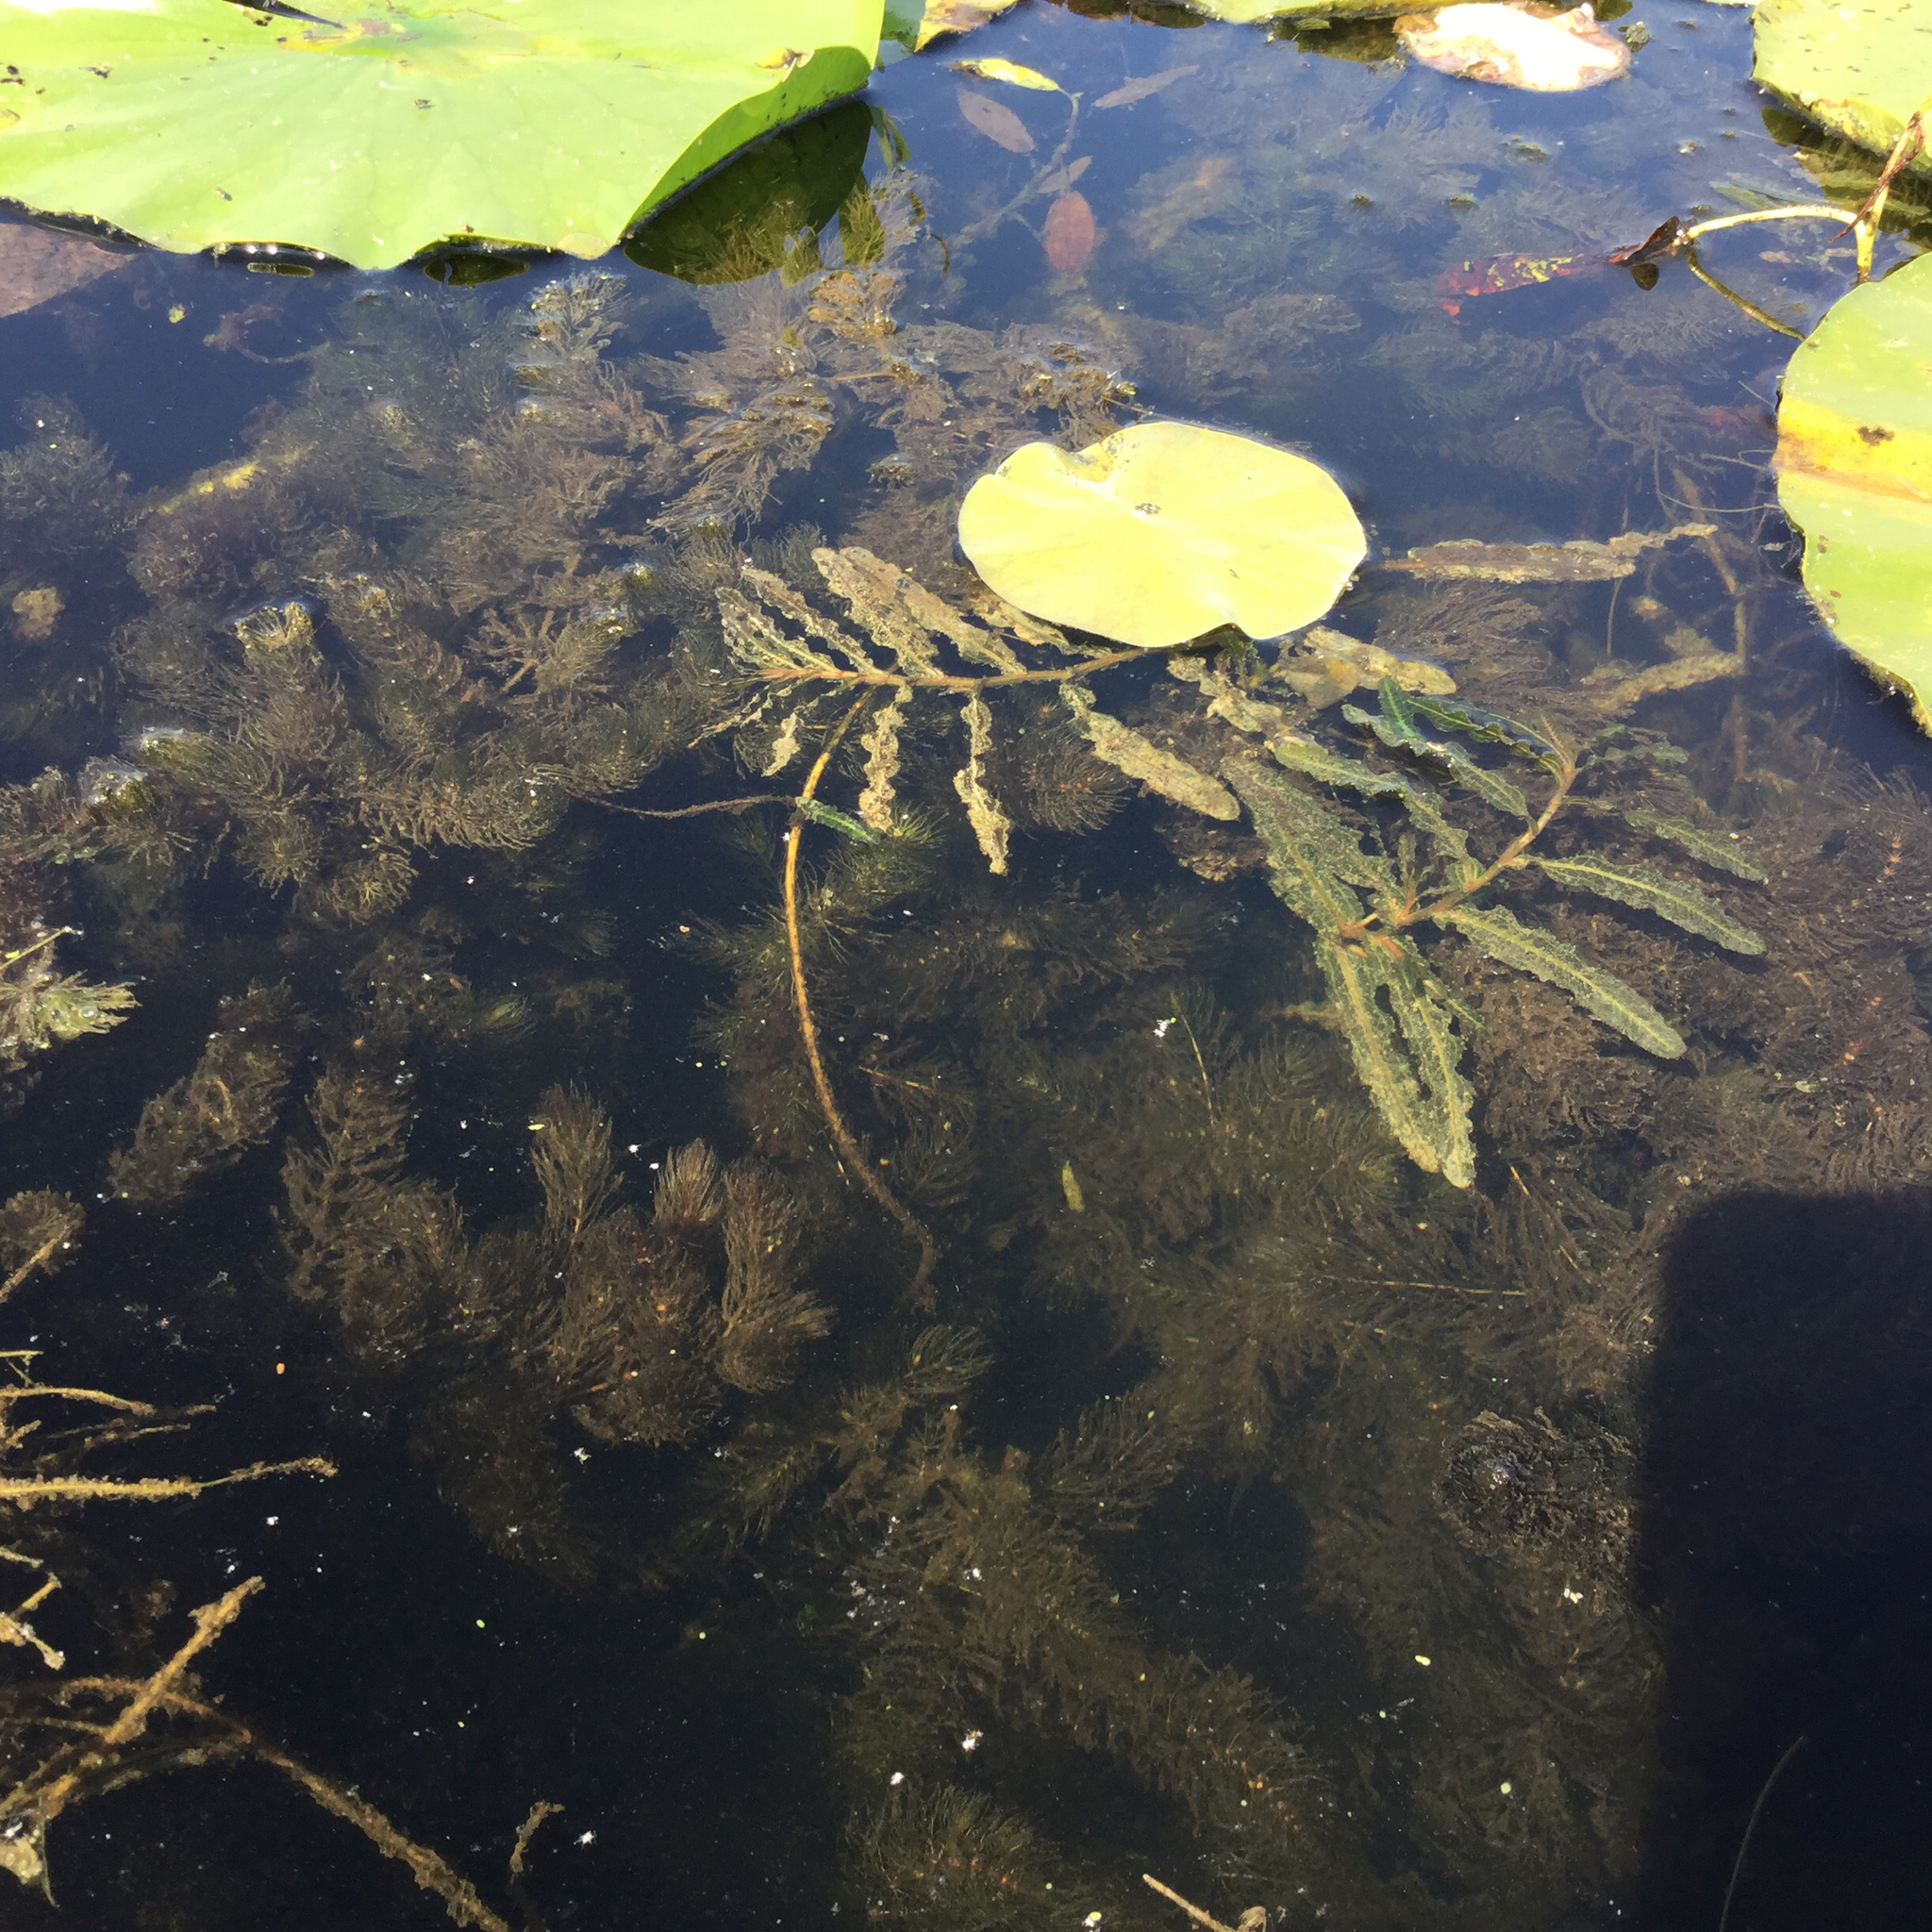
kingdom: Plantae
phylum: Tracheophyta
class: Liliopsida
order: Alismatales
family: Potamogetonaceae
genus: Potamogeton
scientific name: Potamogeton crispus
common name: Curled pondweed
